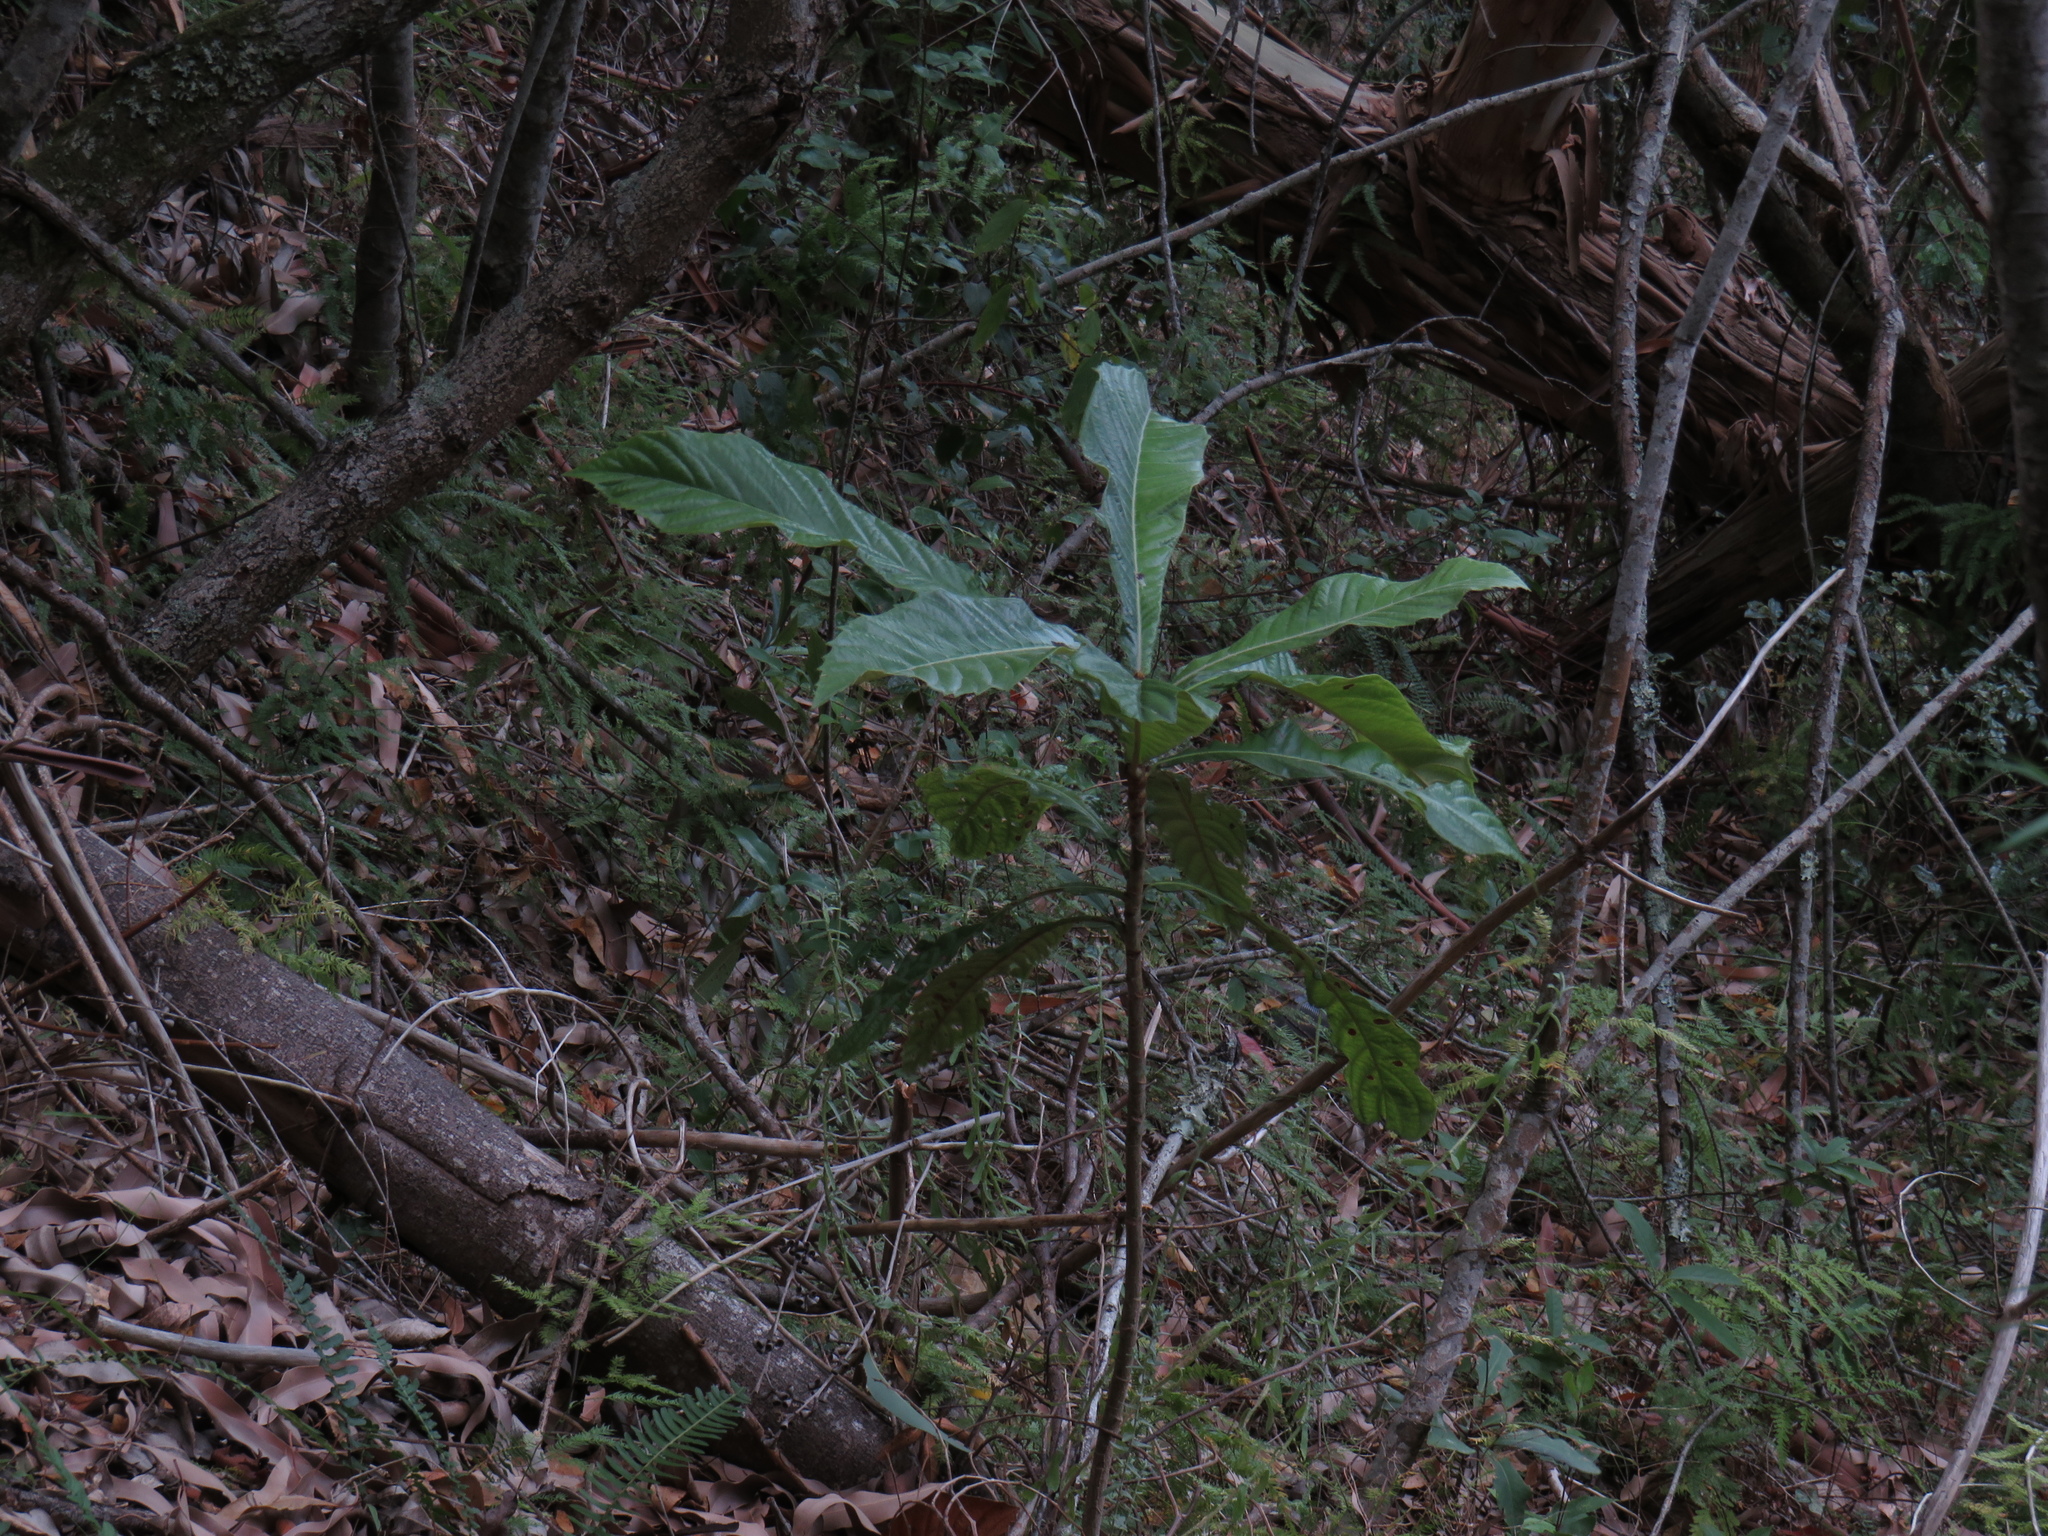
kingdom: Plantae
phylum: Tracheophyta
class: Magnoliopsida
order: Rosales
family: Rosaceae
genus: Rhaphiolepis
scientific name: Rhaphiolepis bibas
